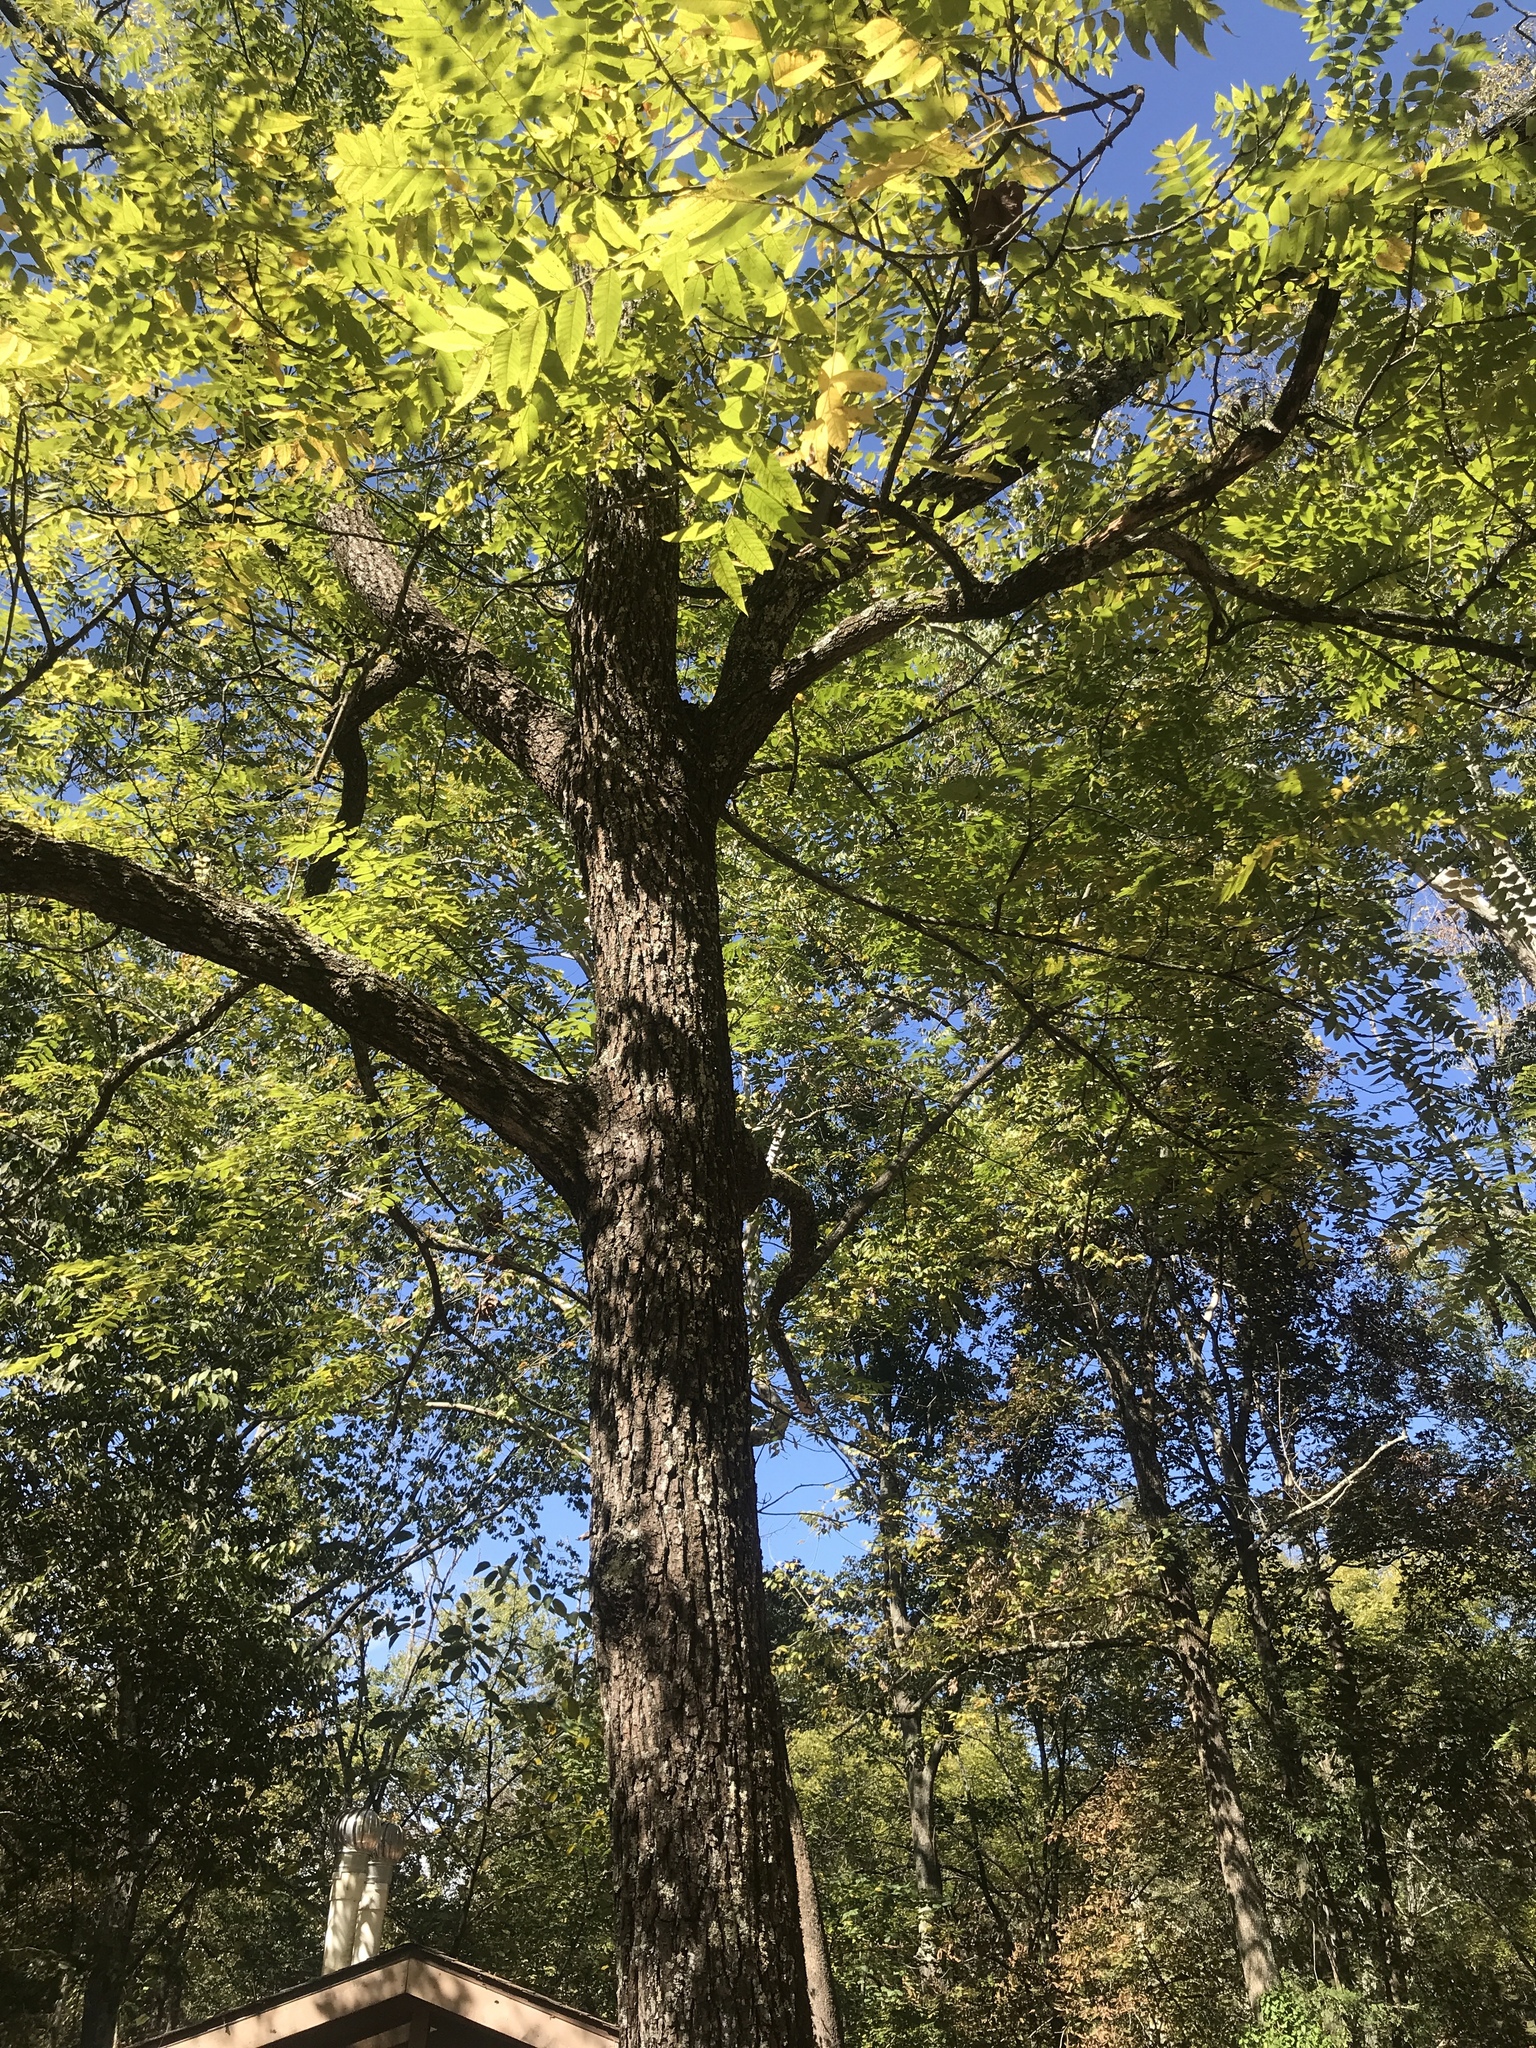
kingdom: Plantae
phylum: Tracheophyta
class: Magnoliopsida
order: Fagales
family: Juglandaceae
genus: Juglans
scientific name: Juglans nigra
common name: Black walnut
